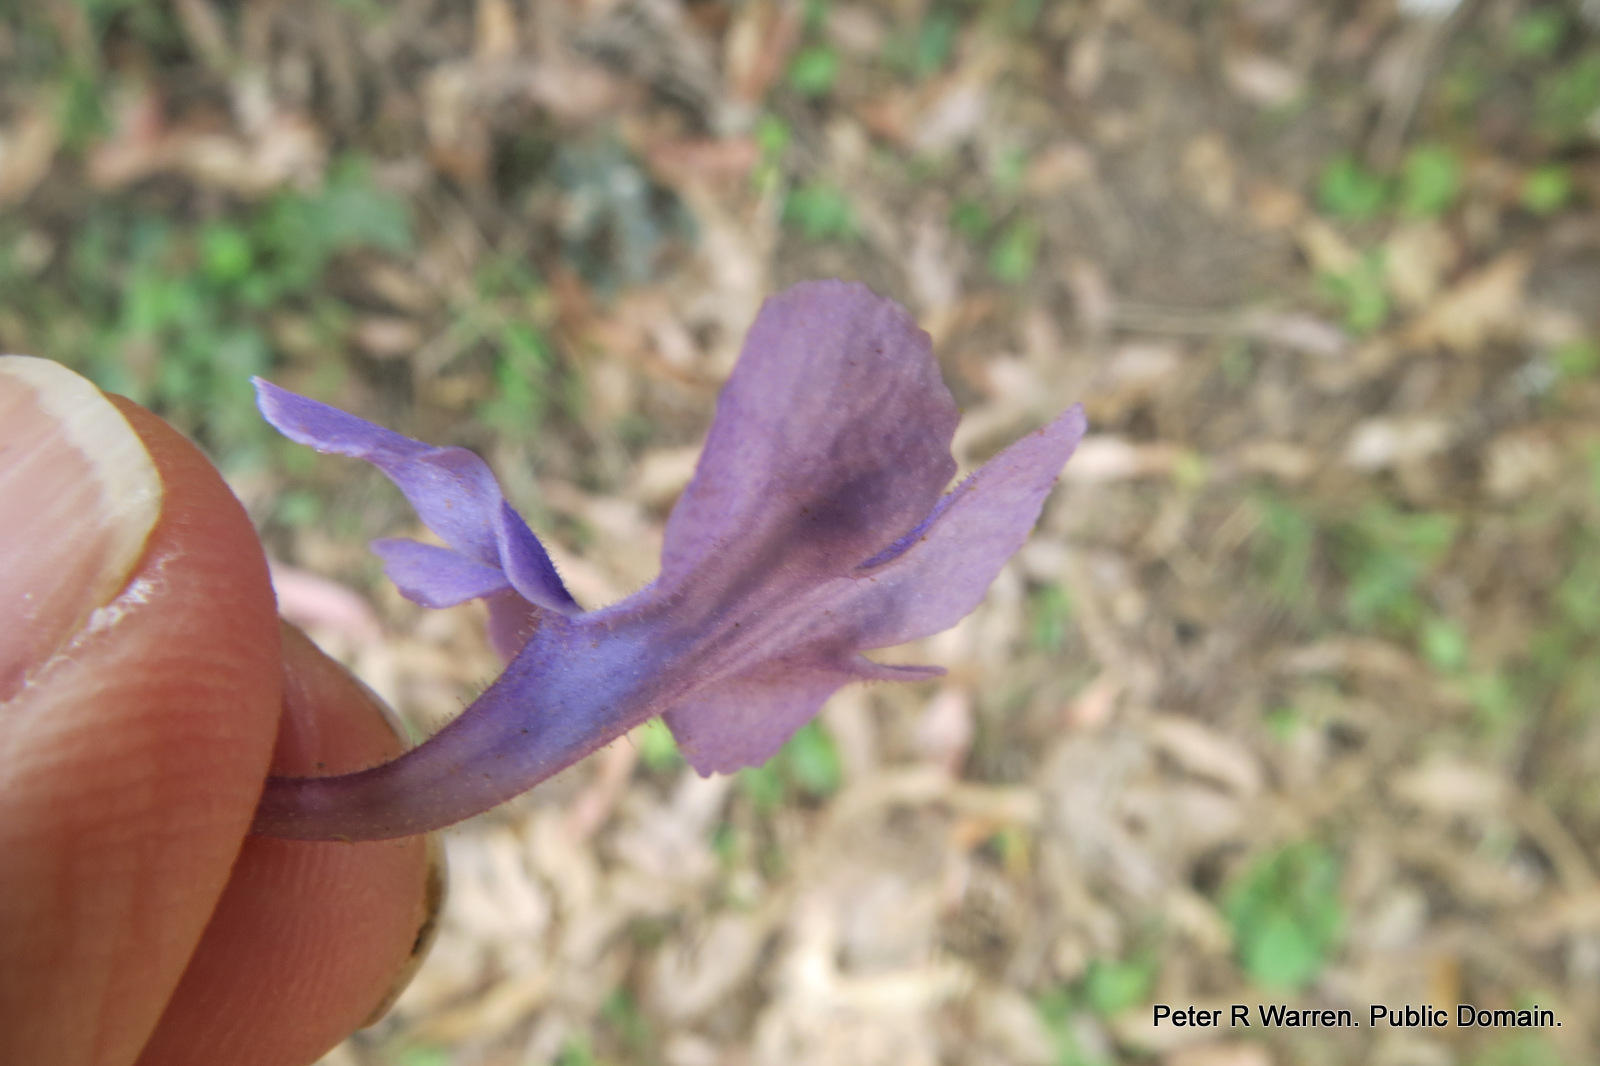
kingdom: Plantae
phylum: Tracheophyta
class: Magnoliopsida
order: Lamiales
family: Gesneriaceae
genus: Streptocarpus
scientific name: Streptocarpus haygarthii
